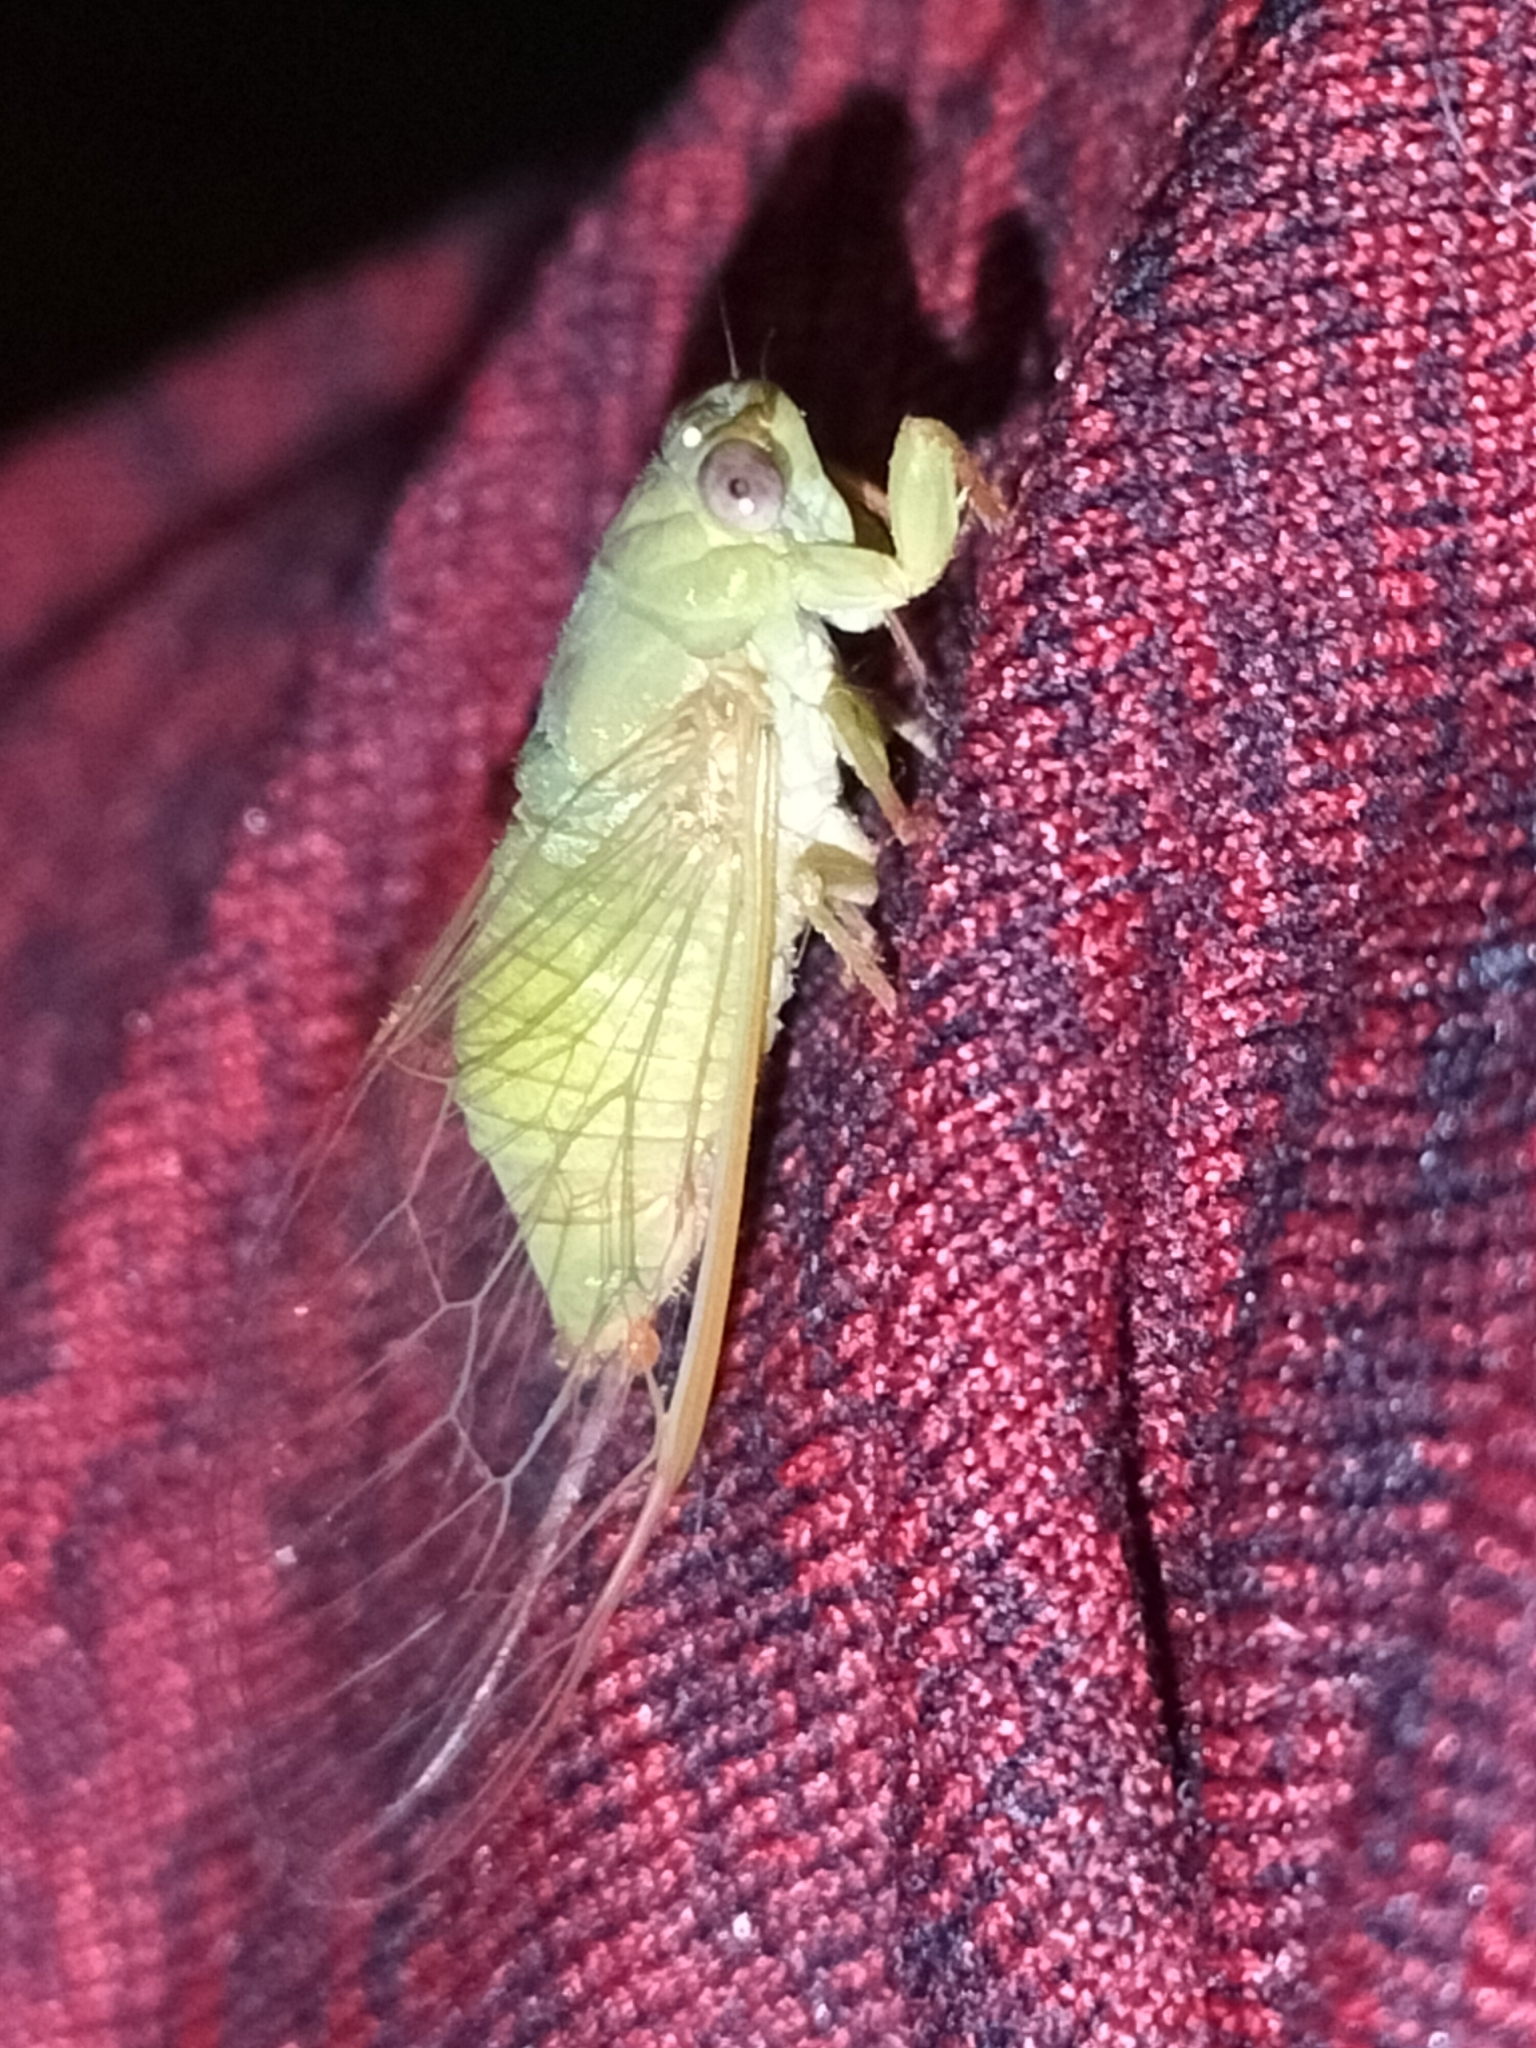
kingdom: Animalia
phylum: Arthropoda
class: Insecta
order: Hemiptera
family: Cicadidae
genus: Gymnotympana
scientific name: Gymnotympana varicolor
